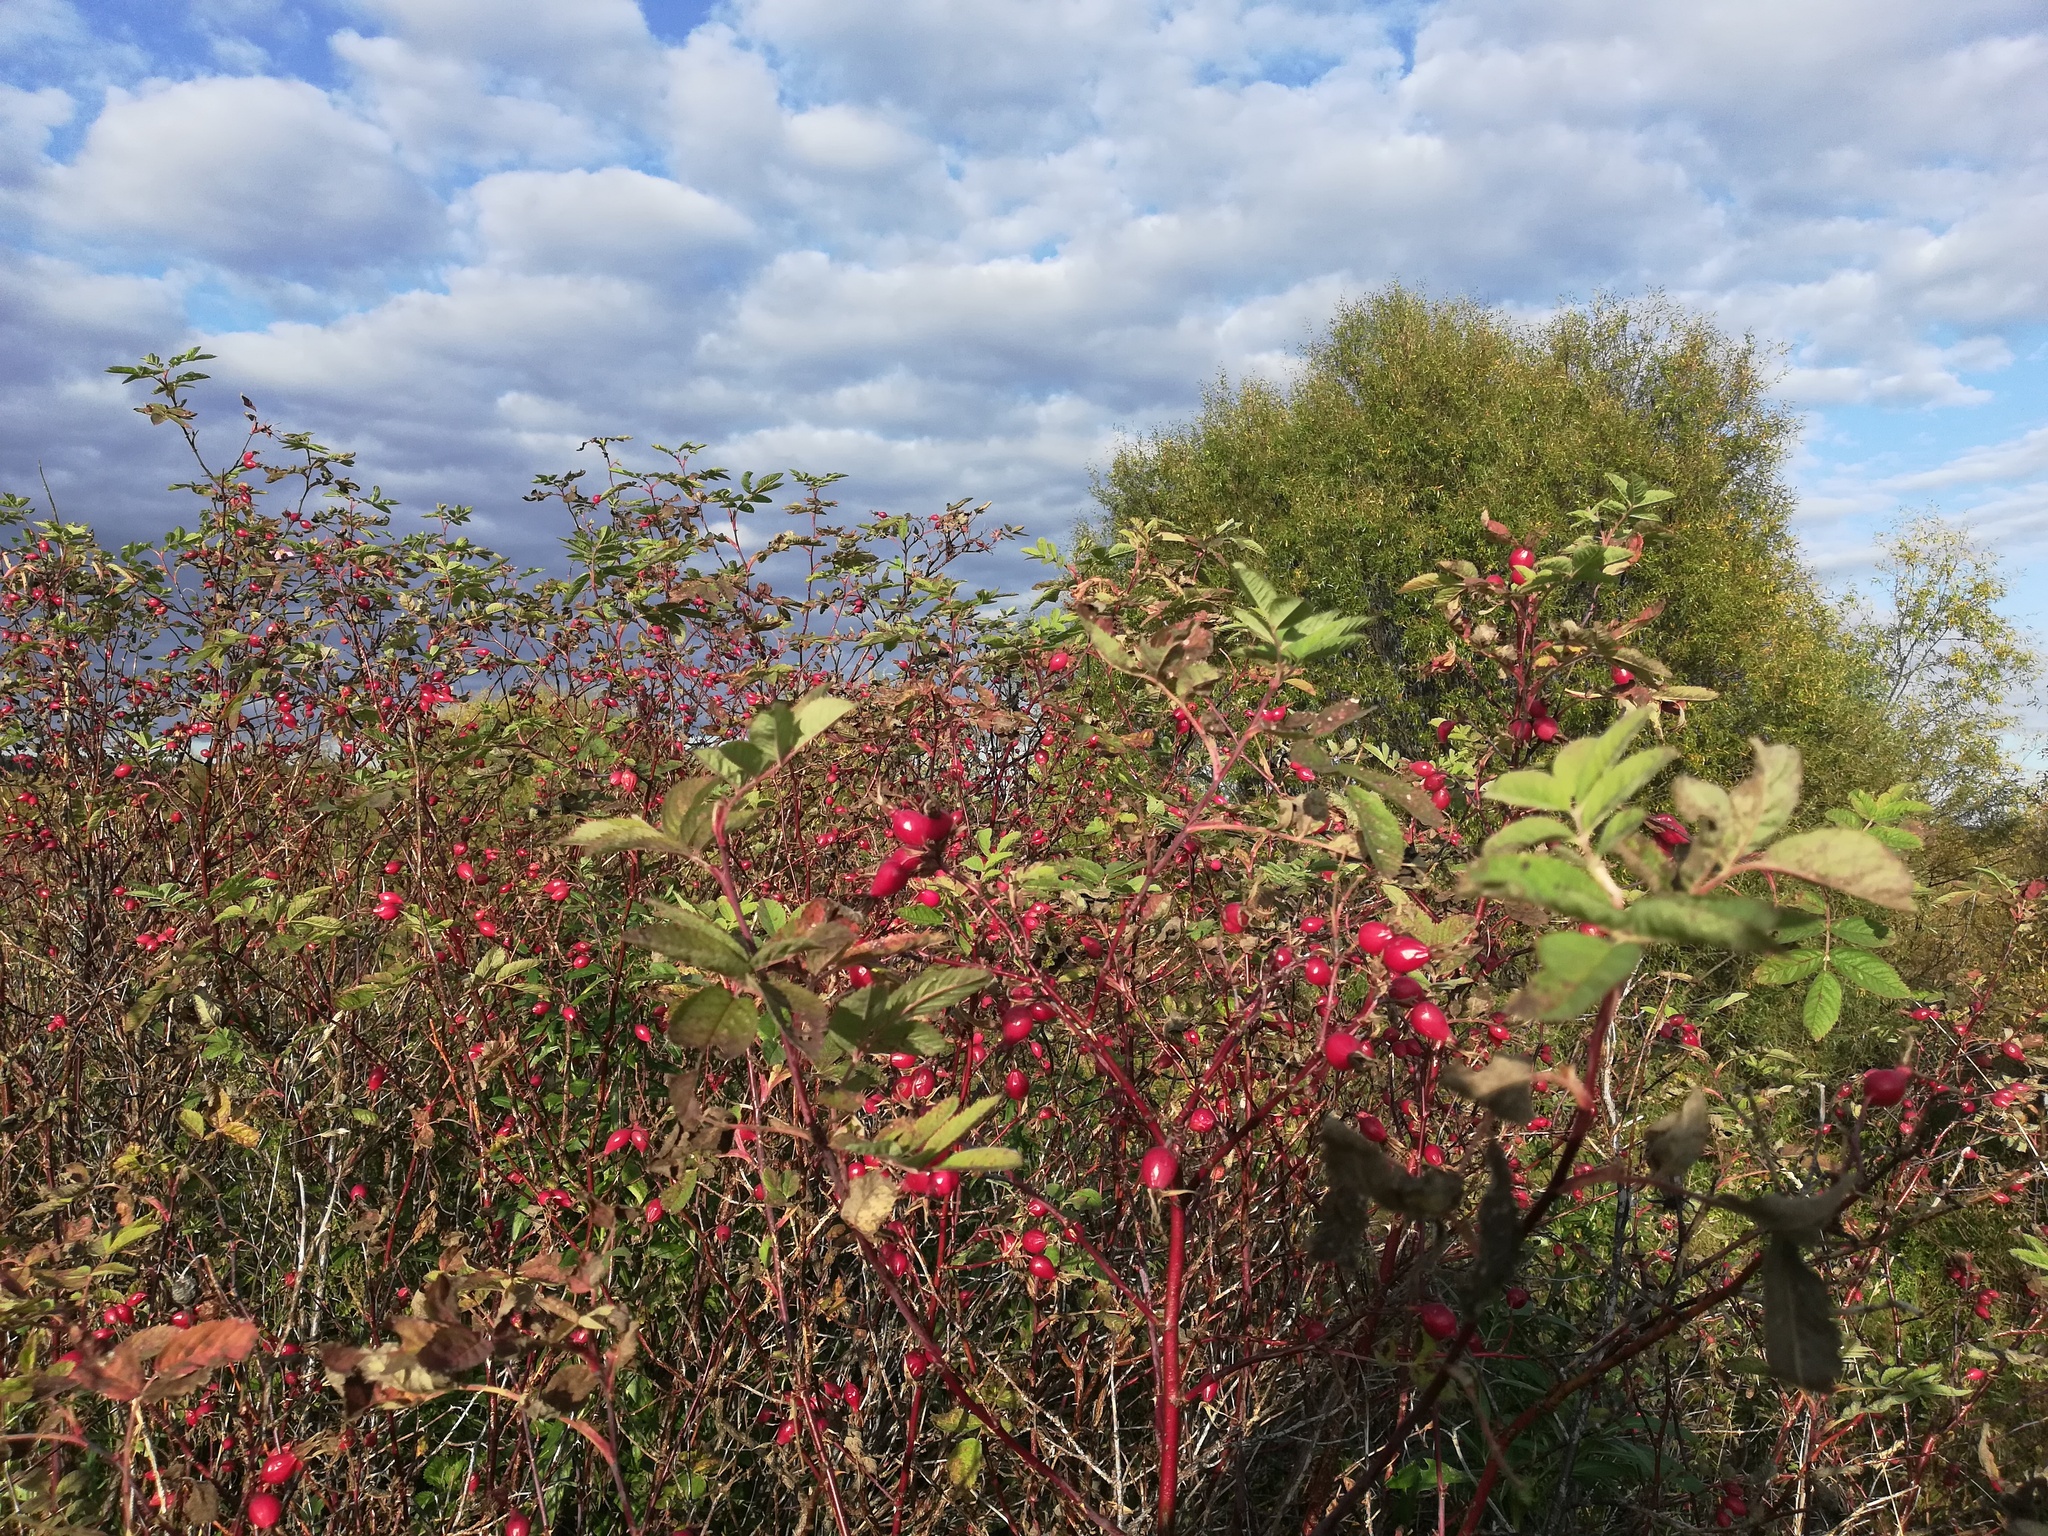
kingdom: Plantae
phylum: Tracheophyta
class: Magnoliopsida
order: Rosales
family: Rosaceae
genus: Rosa
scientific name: Rosa majalis
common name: Cinnamon rose
